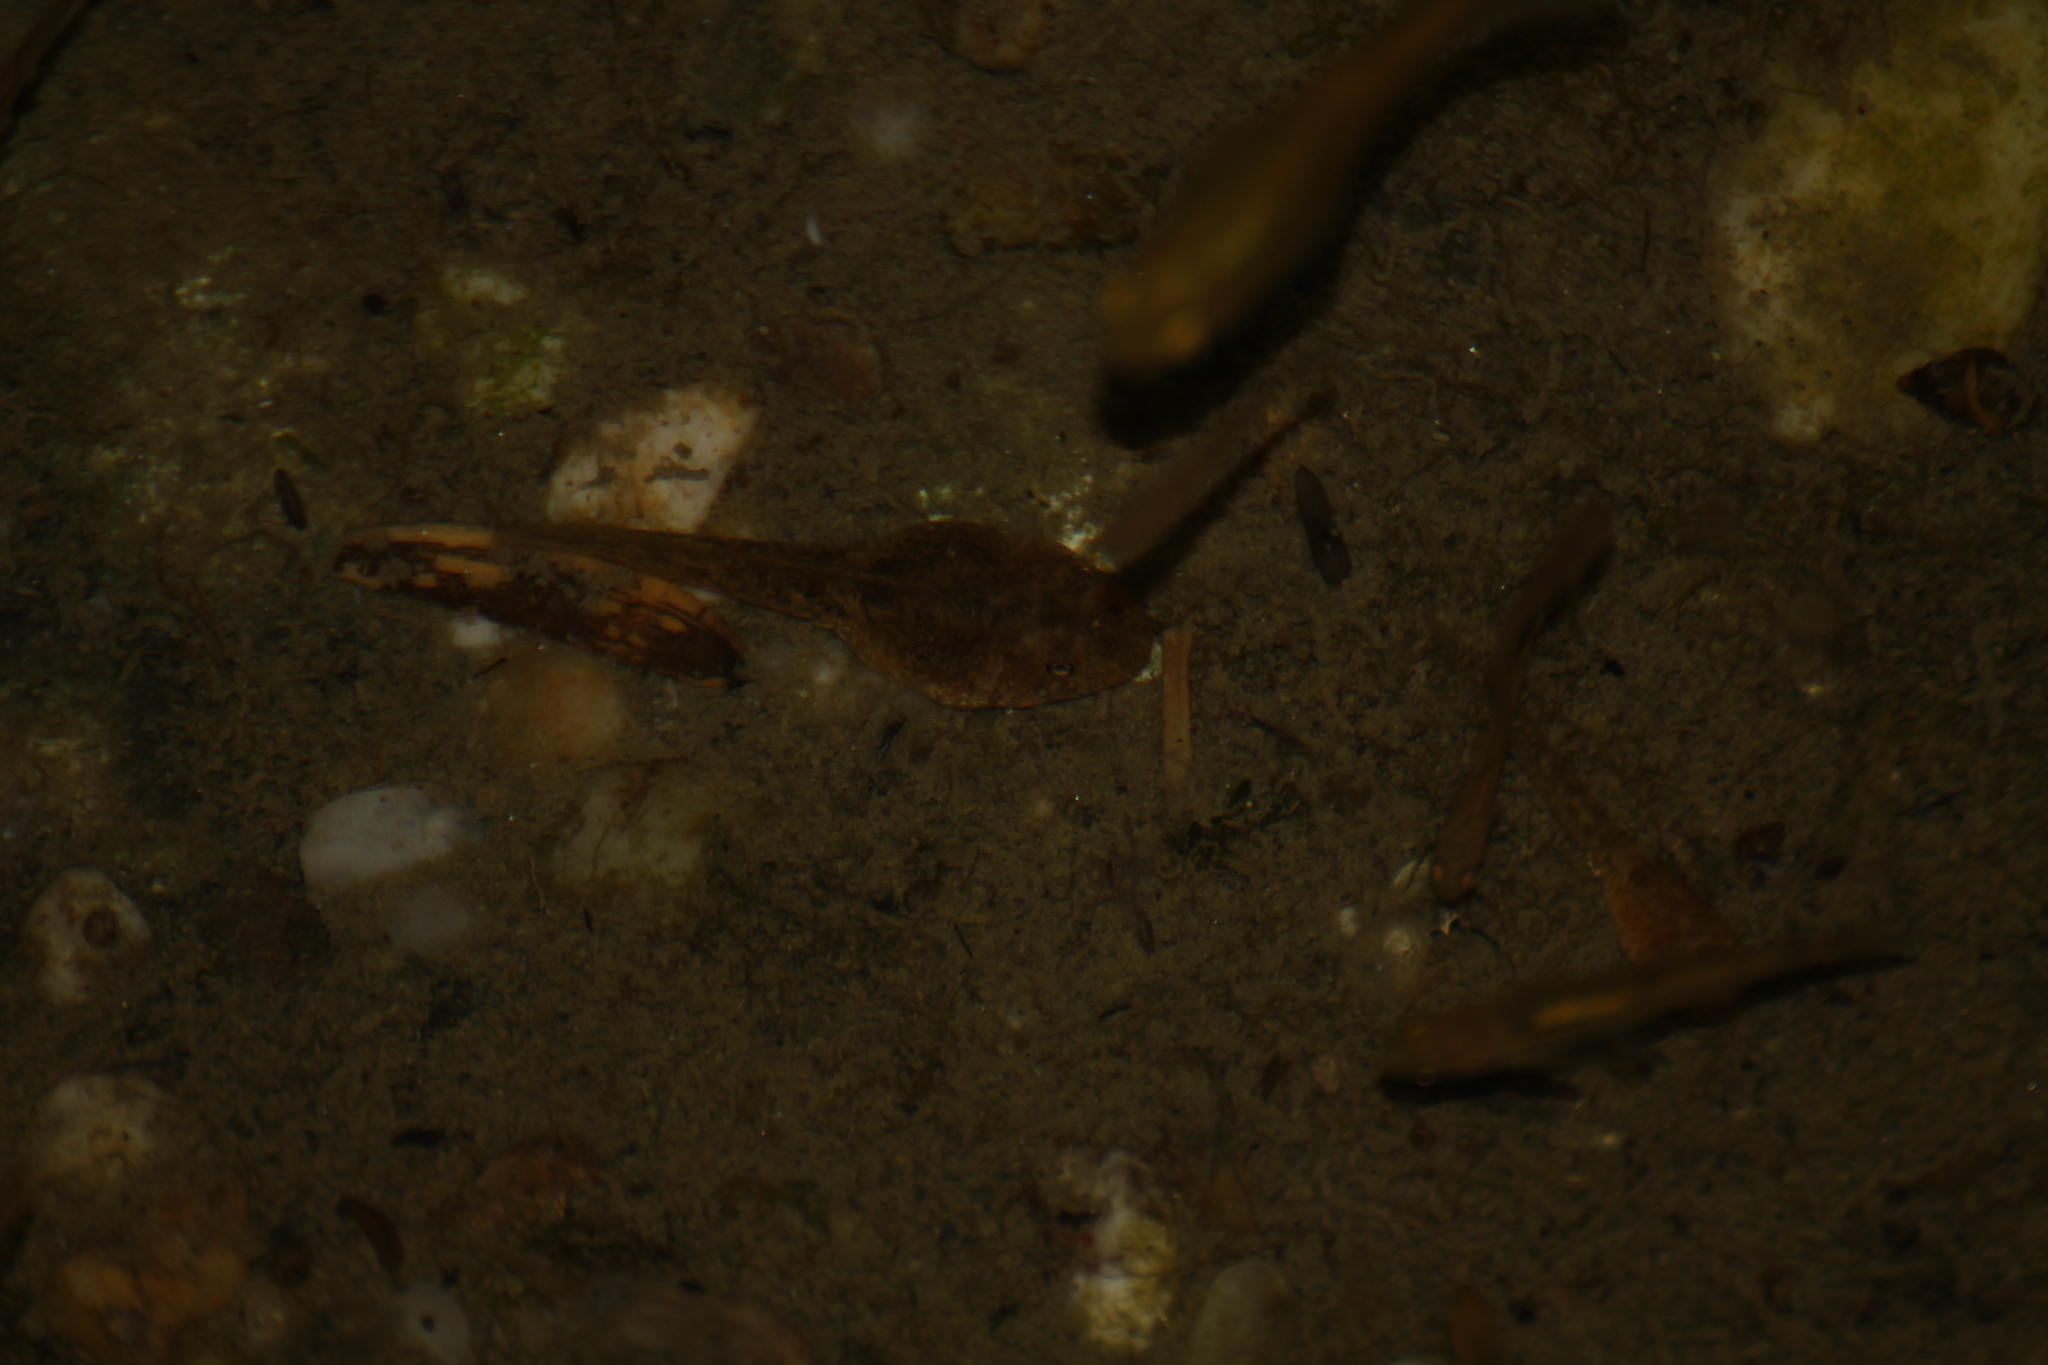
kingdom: Animalia
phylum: Chordata
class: Amphibia
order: Anura
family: Alytidae
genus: Alytes
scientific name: Alytes obstetricans
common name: Midwife toad
